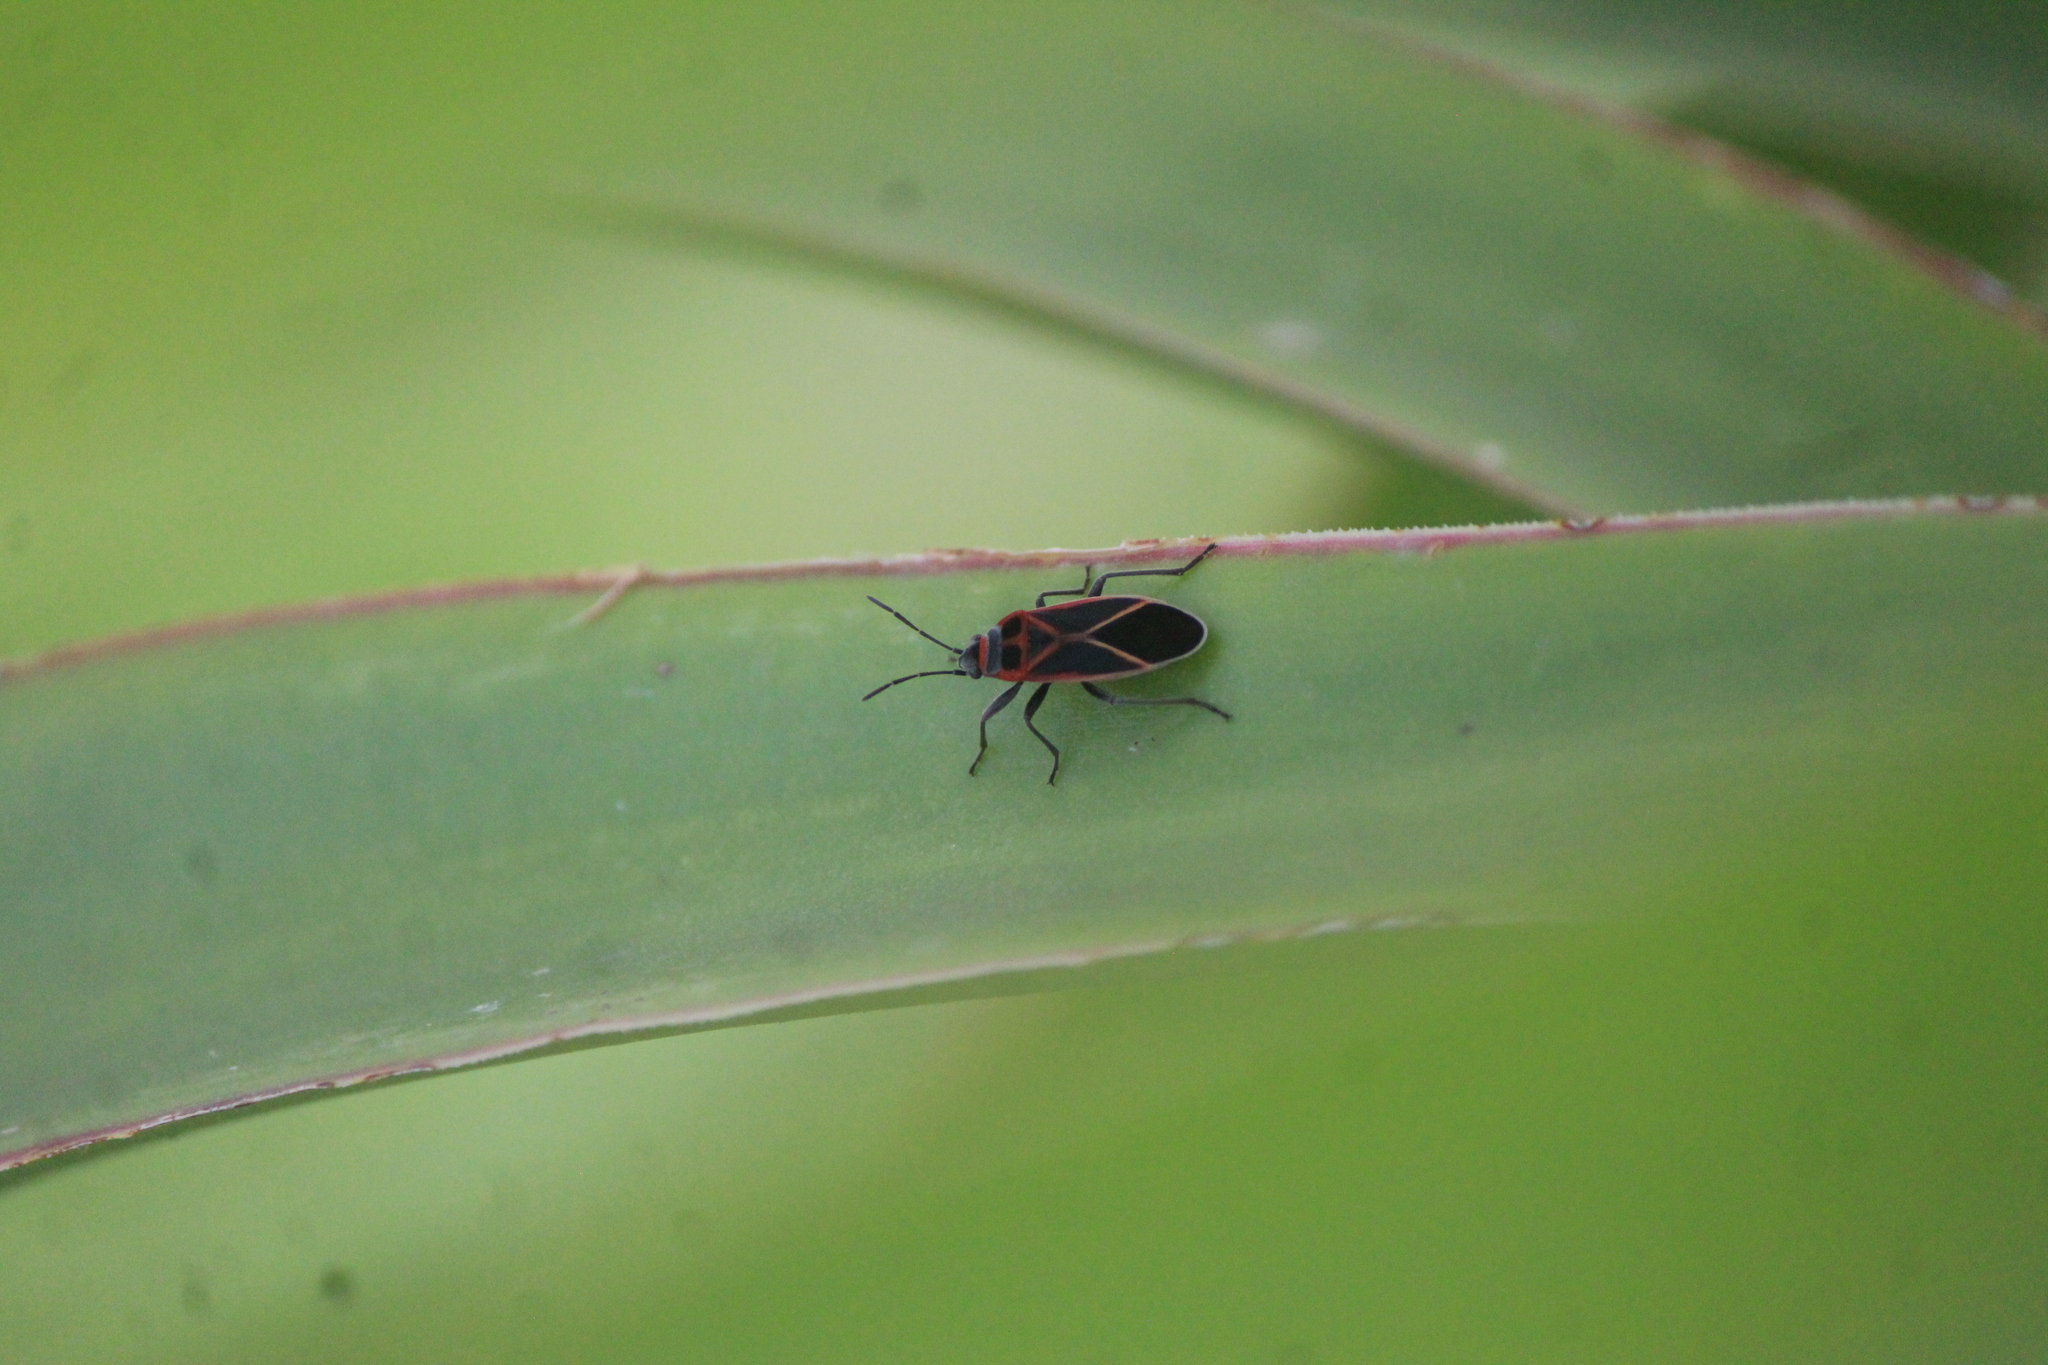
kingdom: Animalia
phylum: Arthropoda
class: Insecta
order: Hemiptera
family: Lygaeidae
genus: Ochrostomus
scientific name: Ochrostomus uhleri
